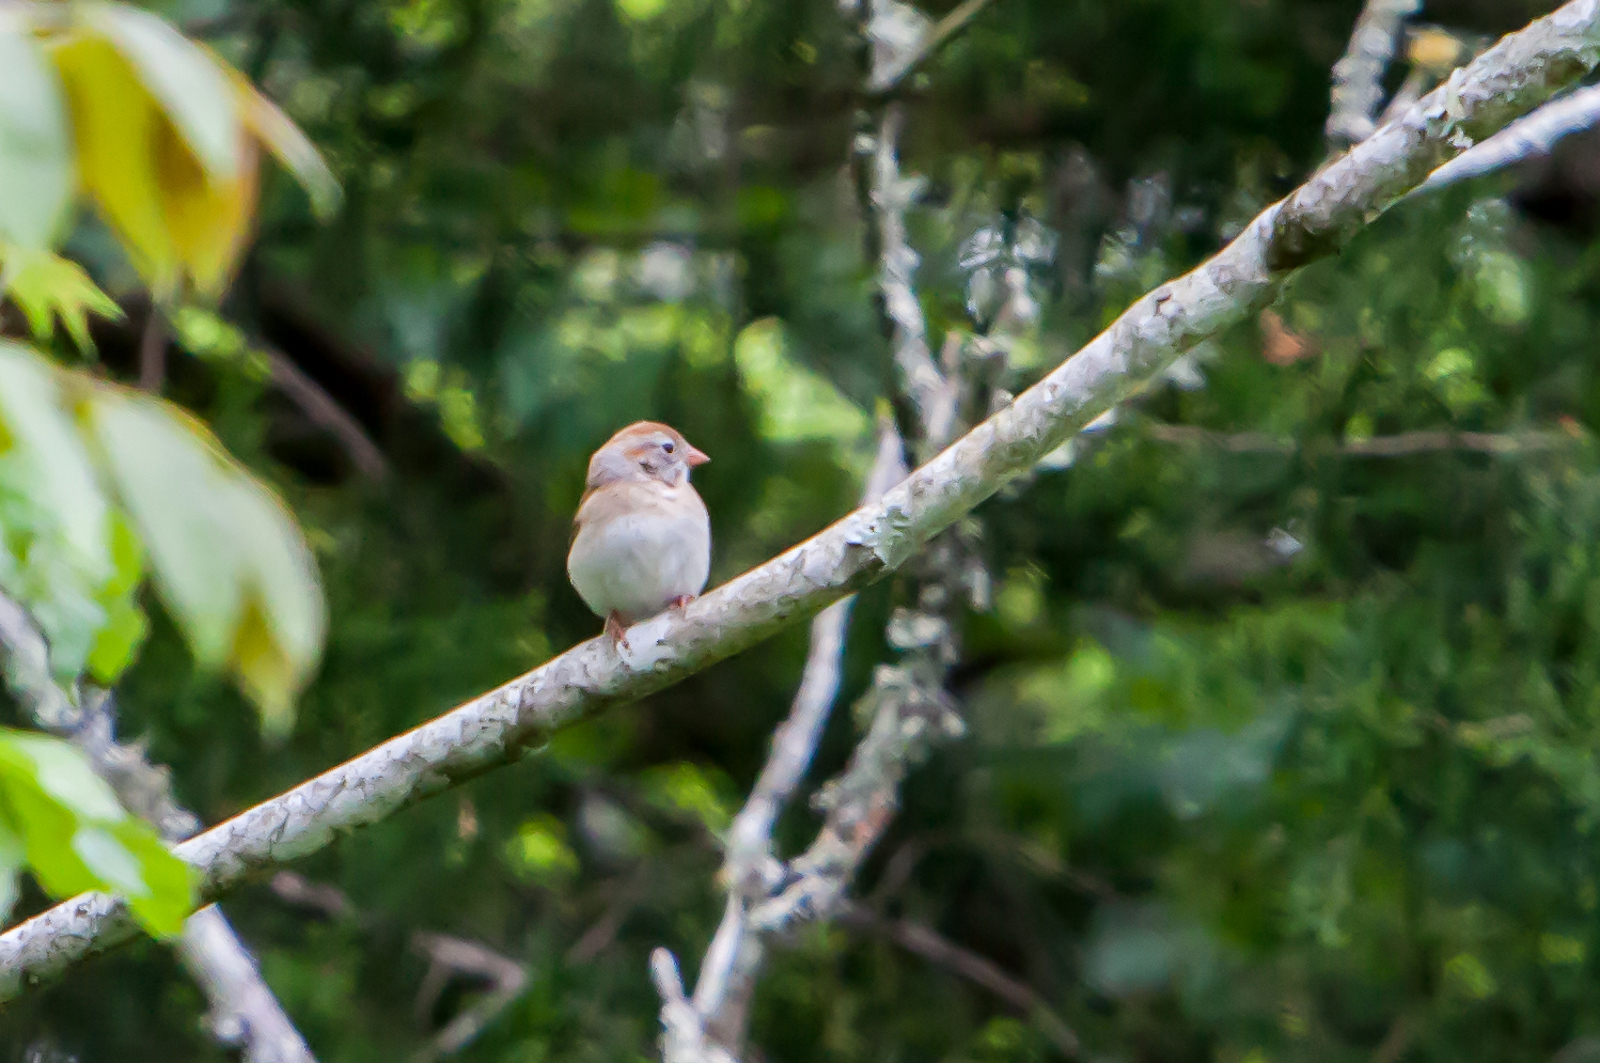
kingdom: Animalia
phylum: Chordata
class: Aves
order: Passeriformes
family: Passerellidae
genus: Spizella
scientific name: Spizella pusilla
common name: Field sparrow
